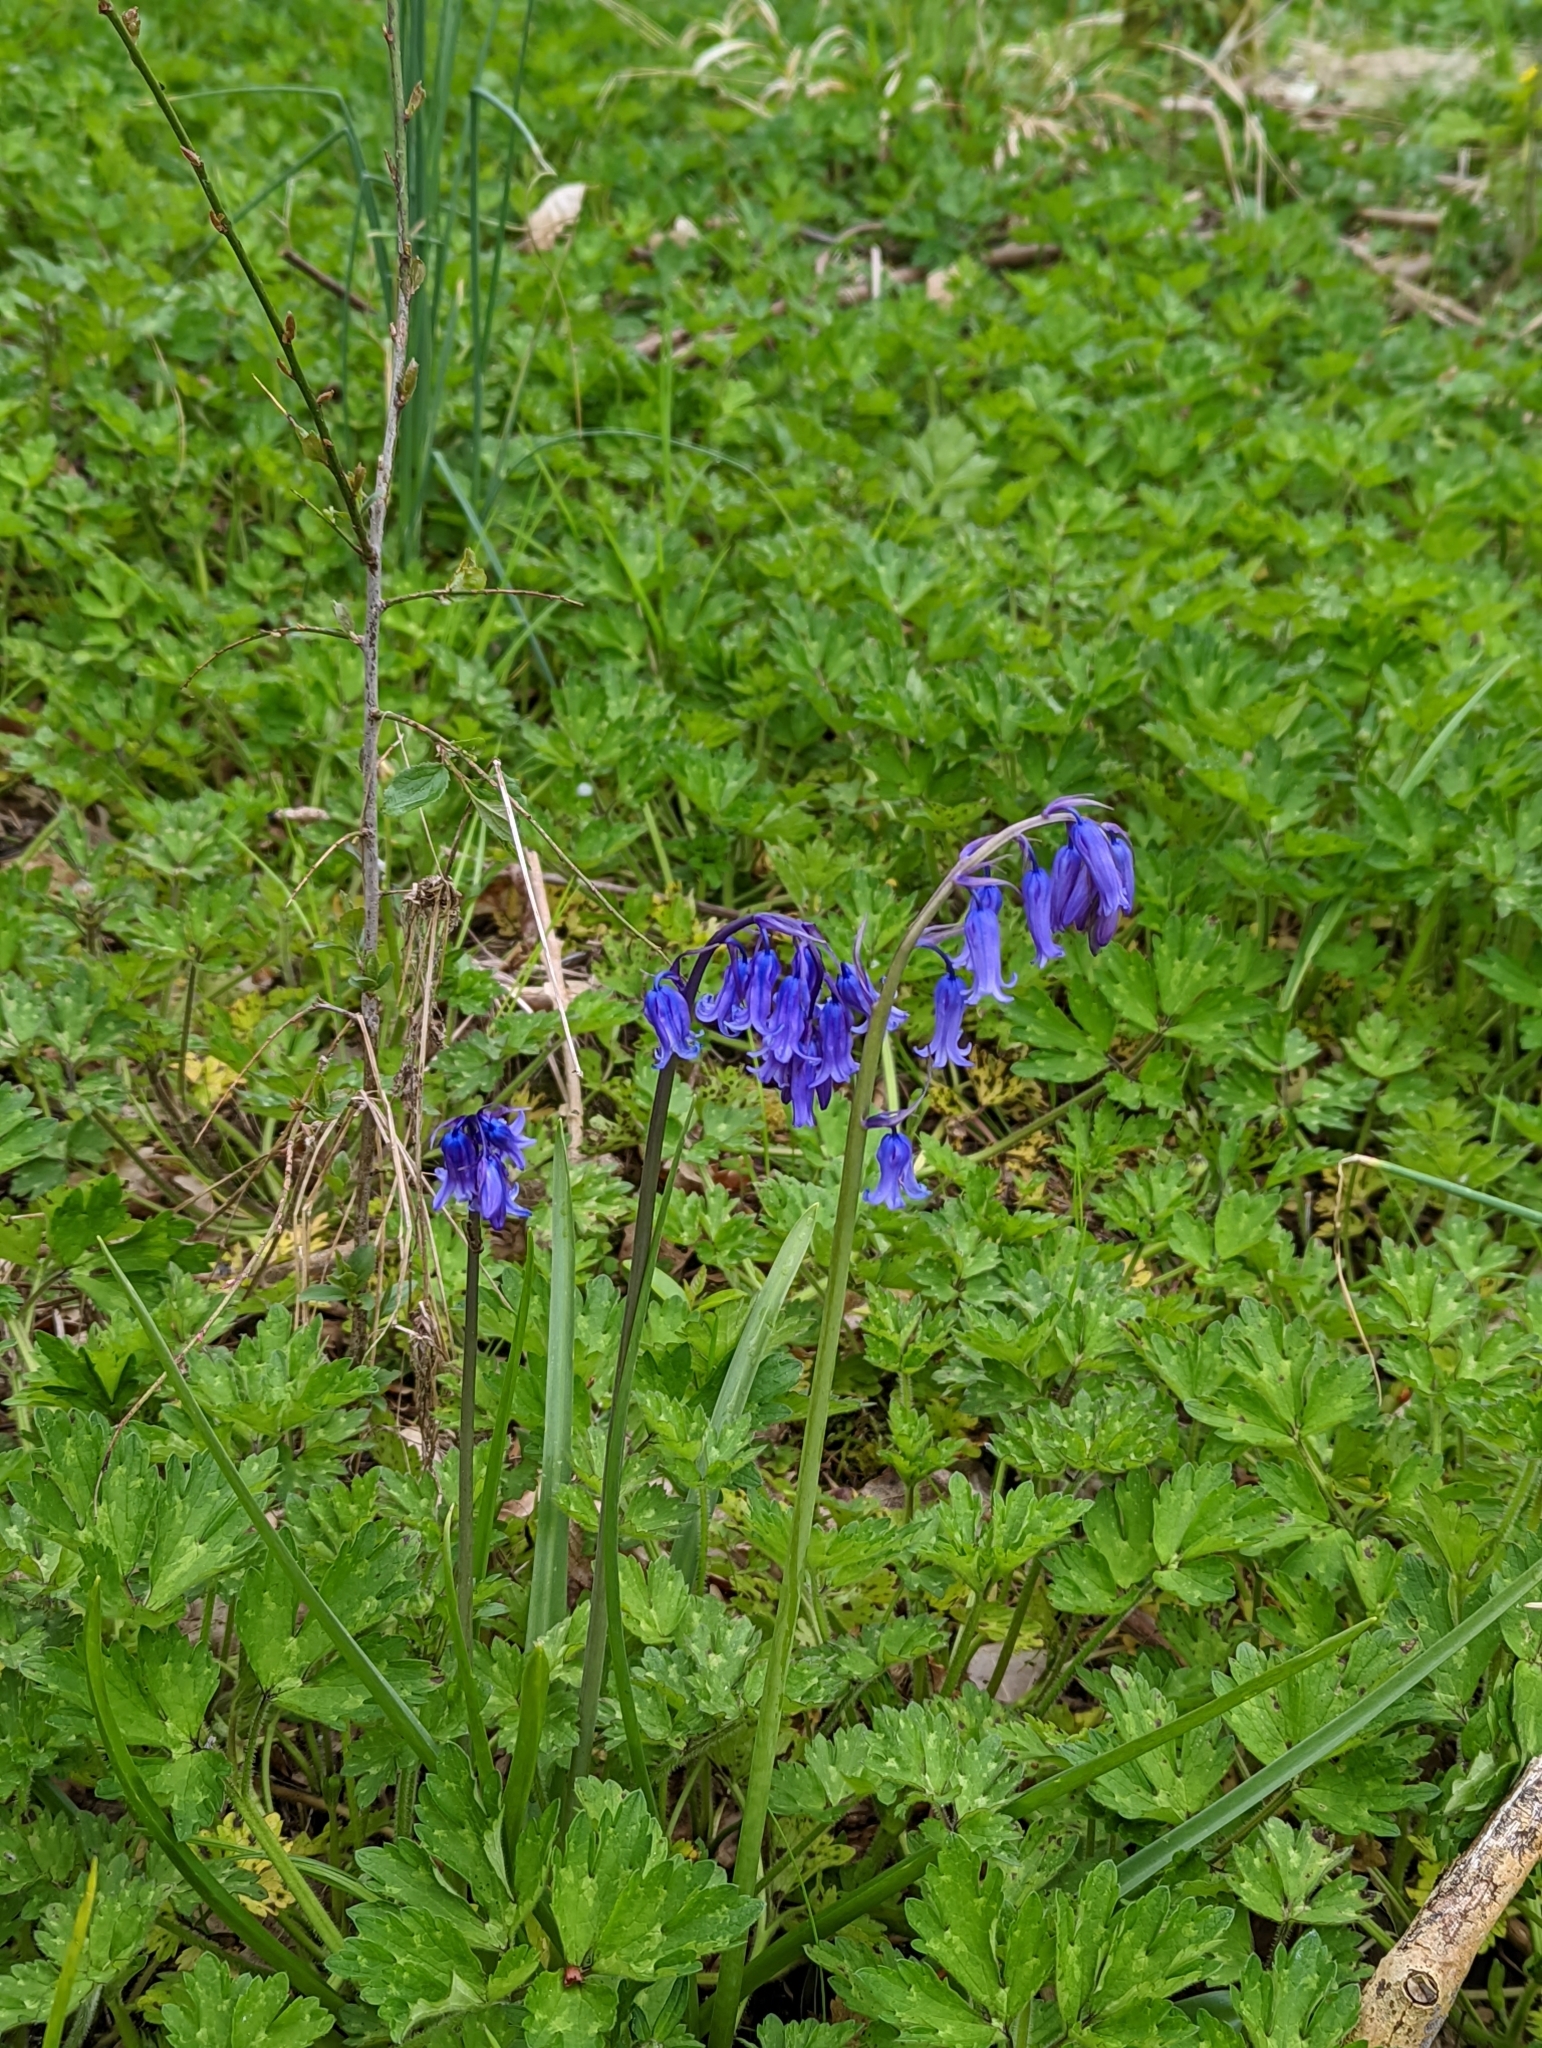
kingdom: Plantae
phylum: Tracheophyta
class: Liliopsida
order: Asparagales
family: Asparagaceae
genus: Hyacinthoides
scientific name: Hyacinthoides non-scripta
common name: Bluebell
